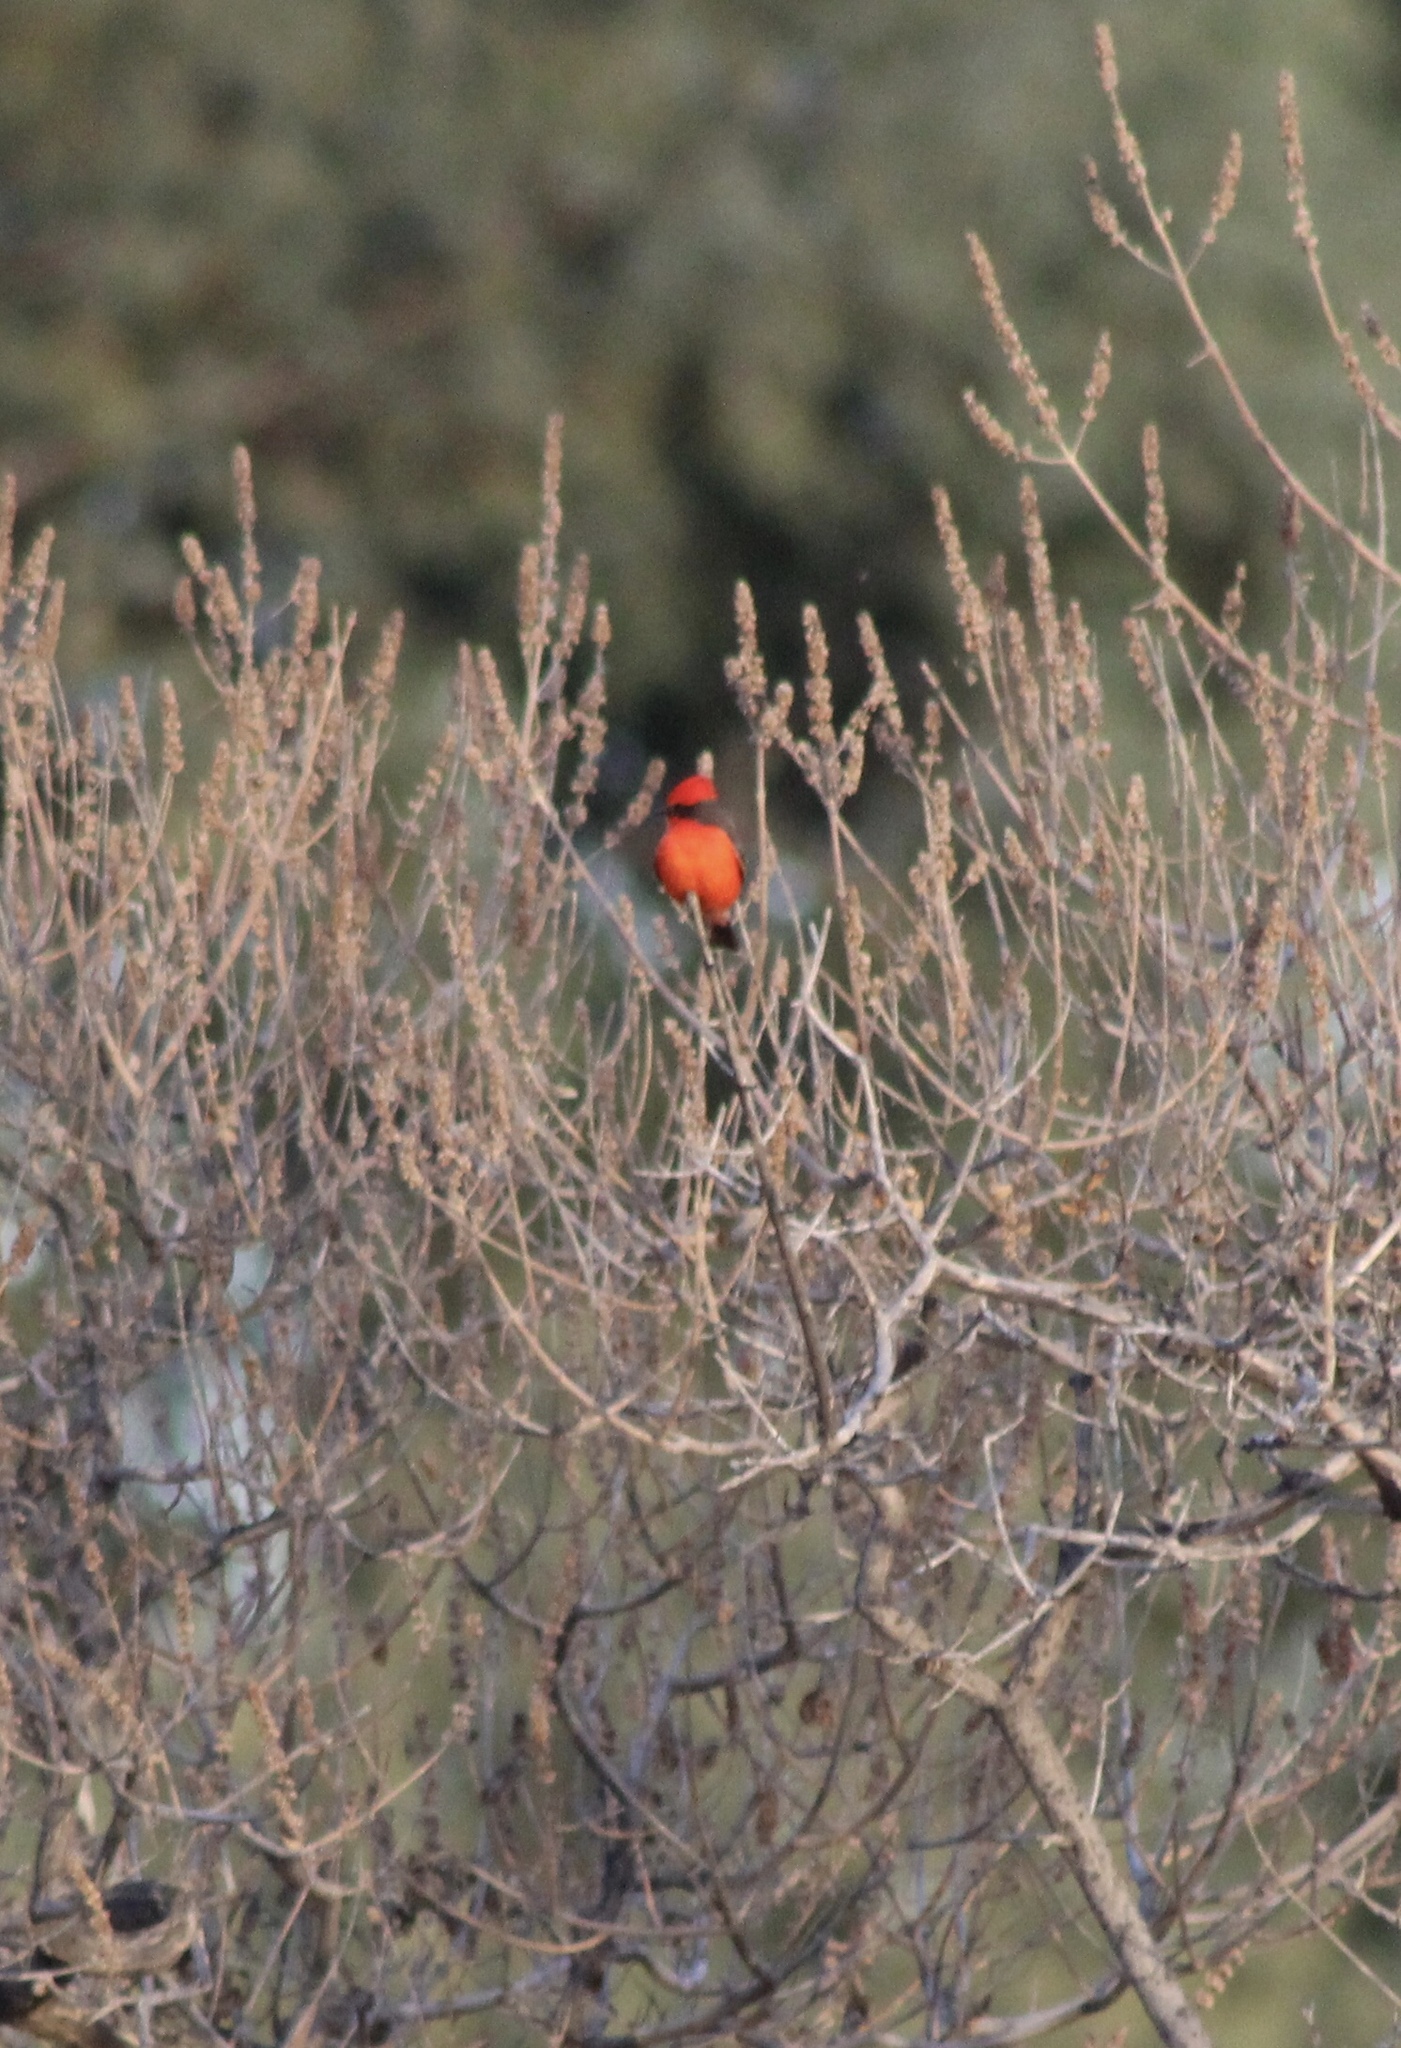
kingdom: Animalia
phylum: Chordata
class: Aves
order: Passeriformes
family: Tyrannidae
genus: Pyrocephalus
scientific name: Pyrocephalus rubinus
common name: Vermilion flycatcher
